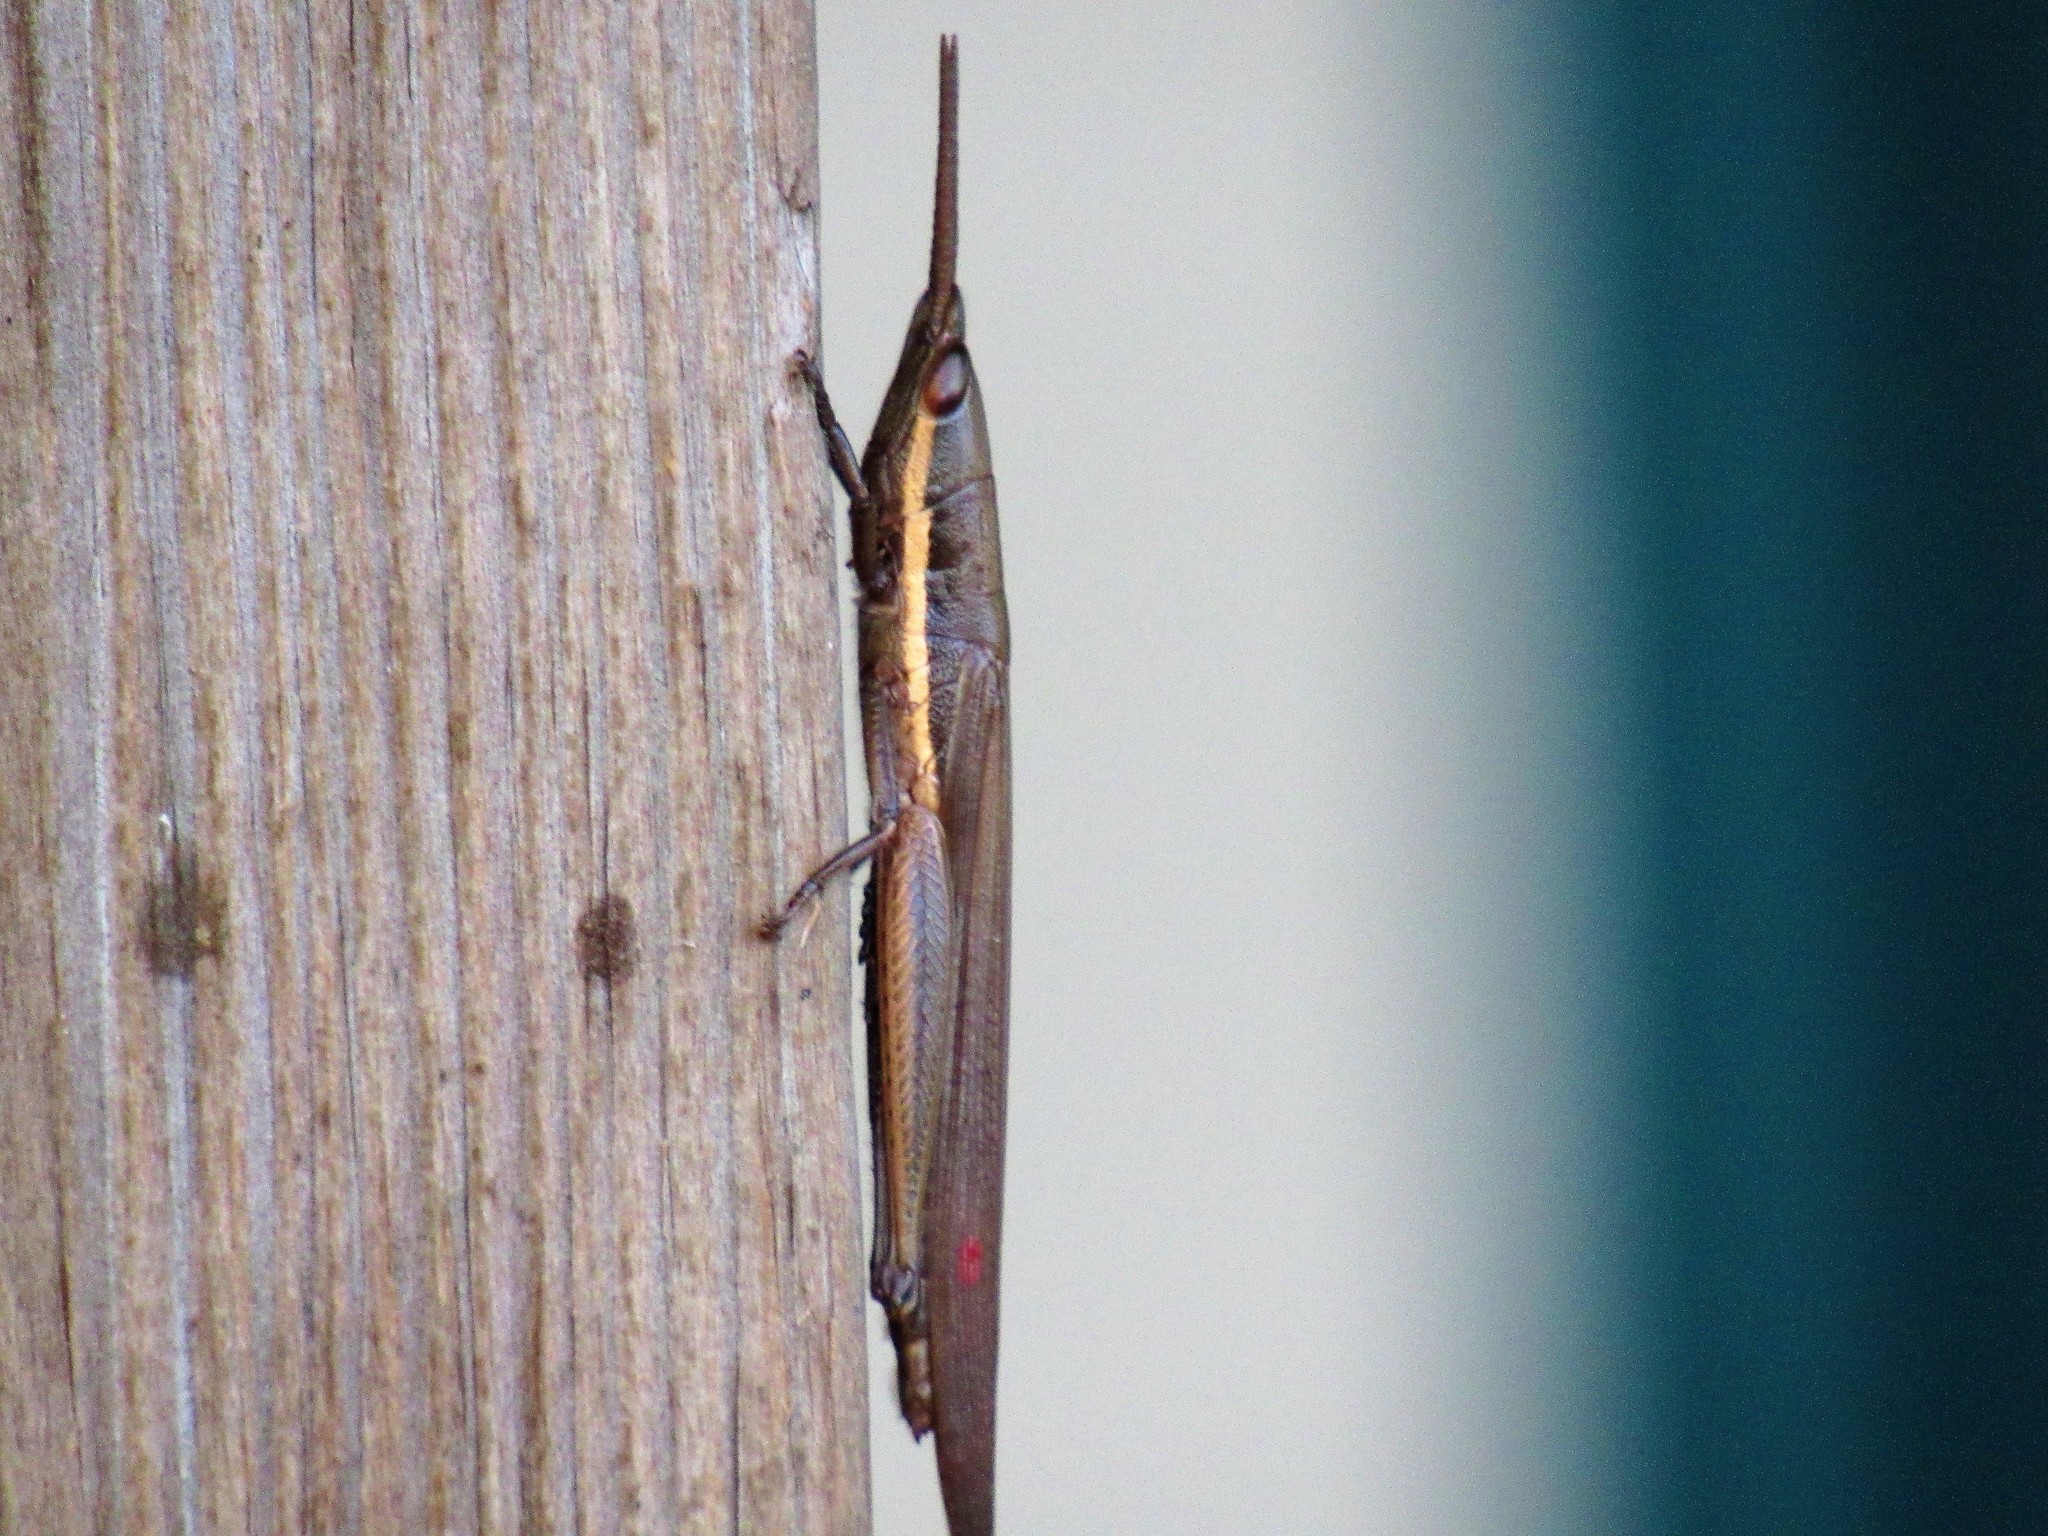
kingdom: Animalia
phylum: Arthropoda
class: Insecta
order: Orthoptera
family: Acrididae
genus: Leptysma
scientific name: Leptysma marginicollis
